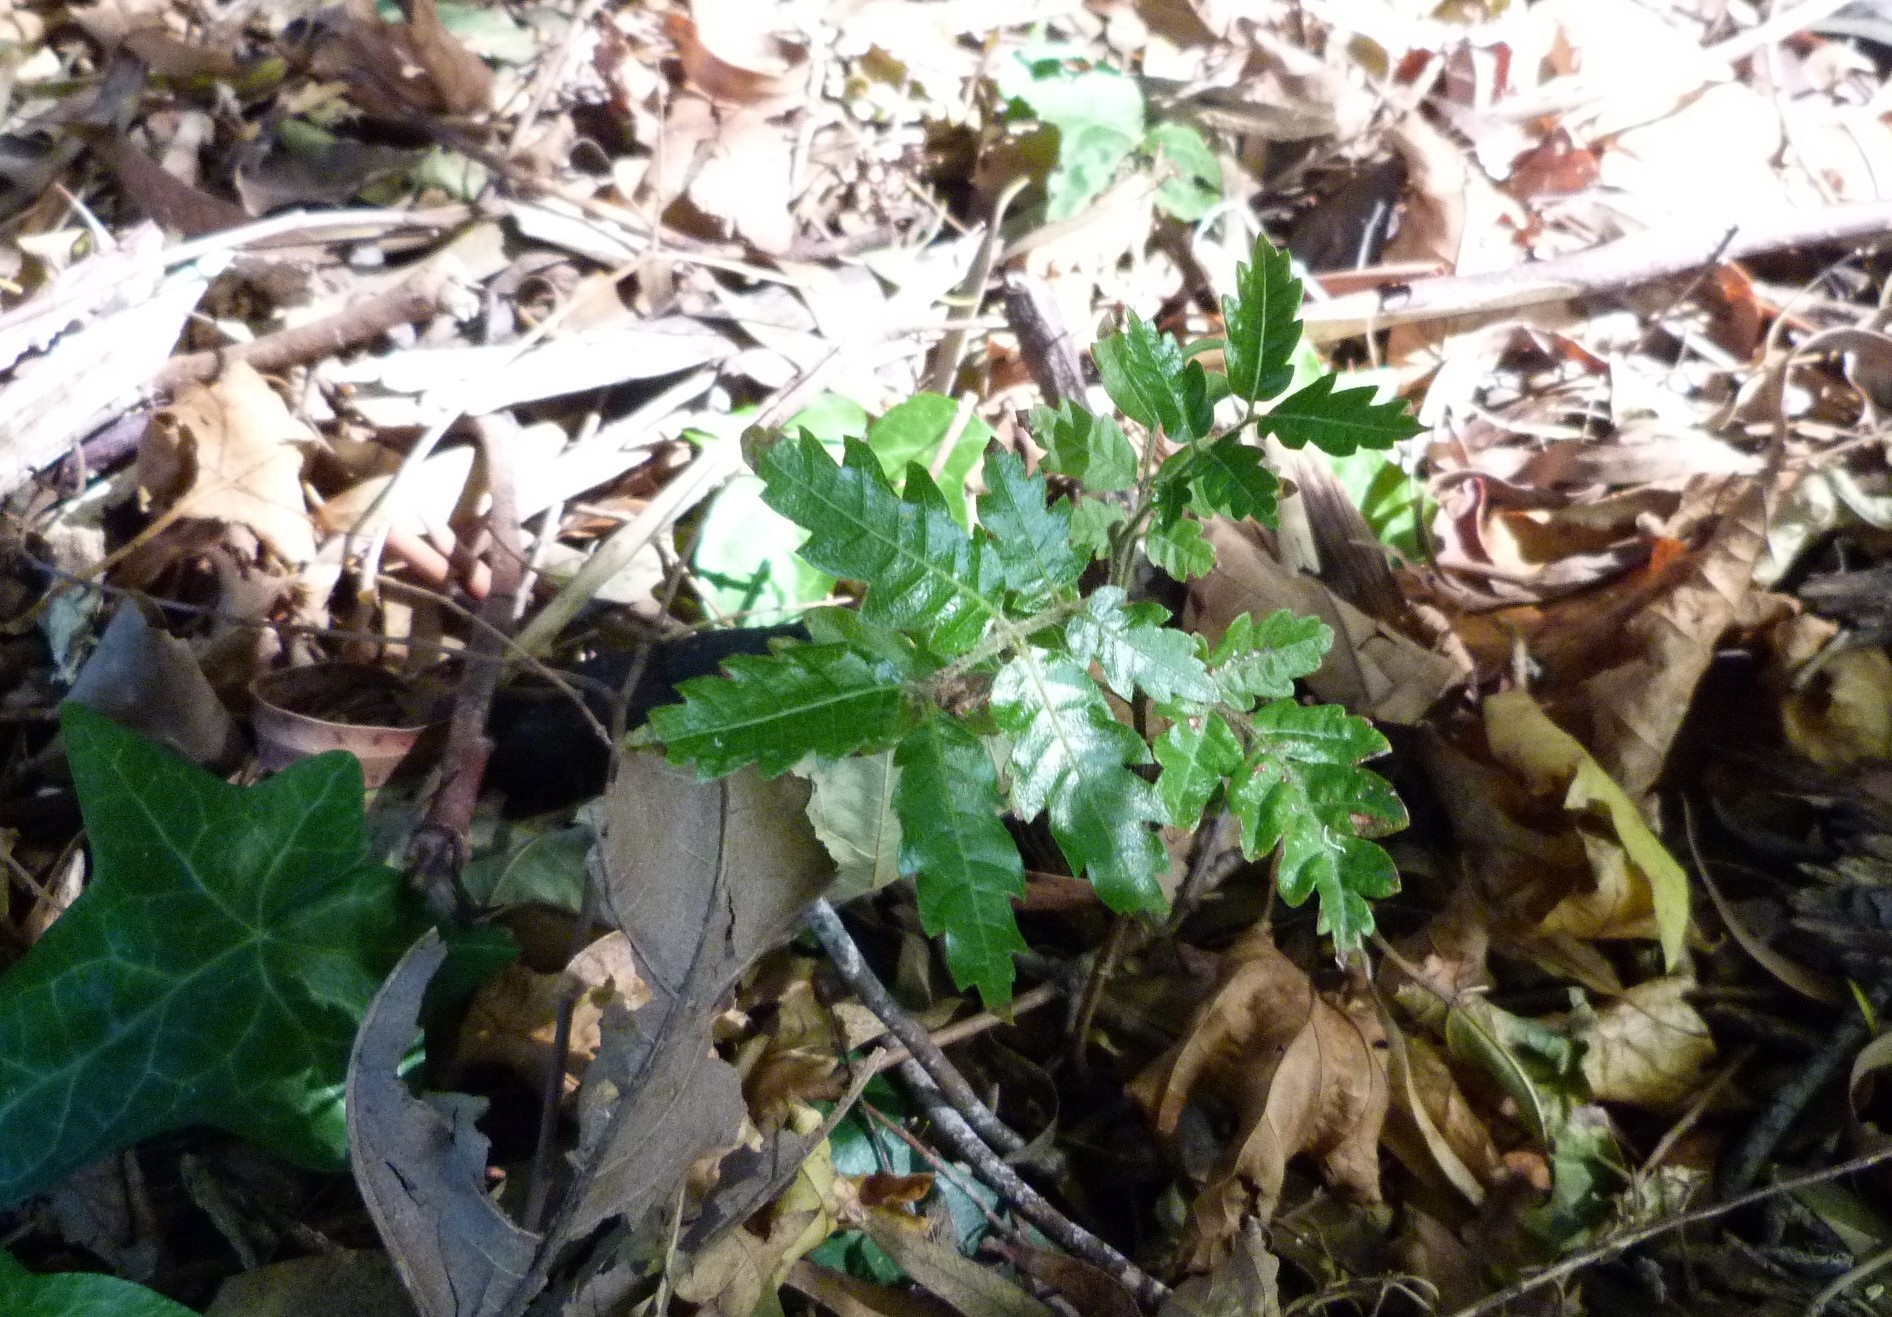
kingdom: Plantae
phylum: Tracheophyta
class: Magnoliopsida
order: Sapindales
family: Sapindaceae
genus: Alectryon
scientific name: Alectryon excelsus
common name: Three kings titoki
